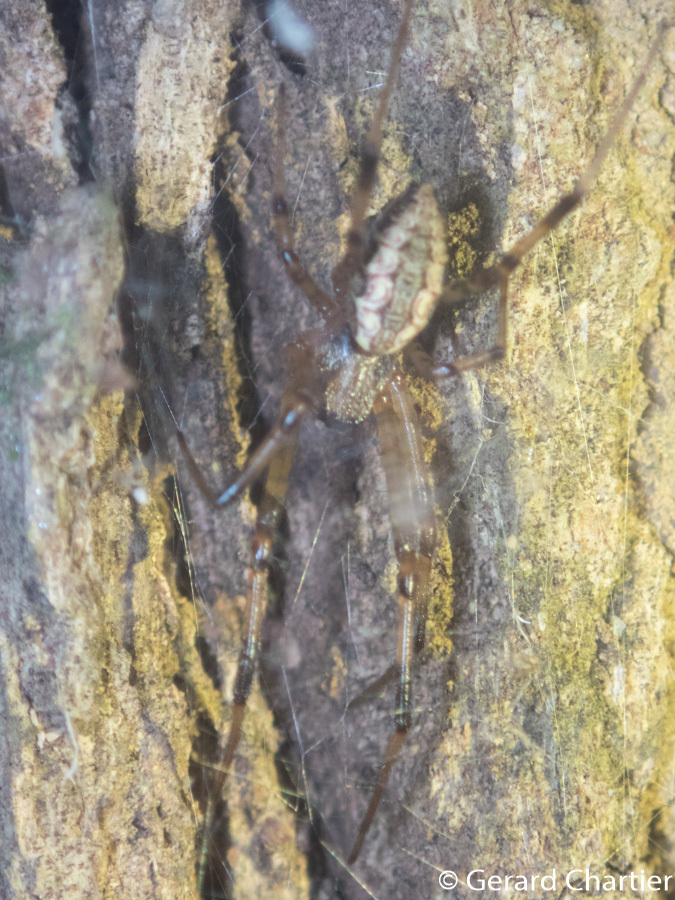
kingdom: Animalia
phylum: Arthropoda
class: Arachnida
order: Araneae
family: Araneidae
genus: Nephilengys
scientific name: Nephilengys malabarensis
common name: Asian hermit spider
